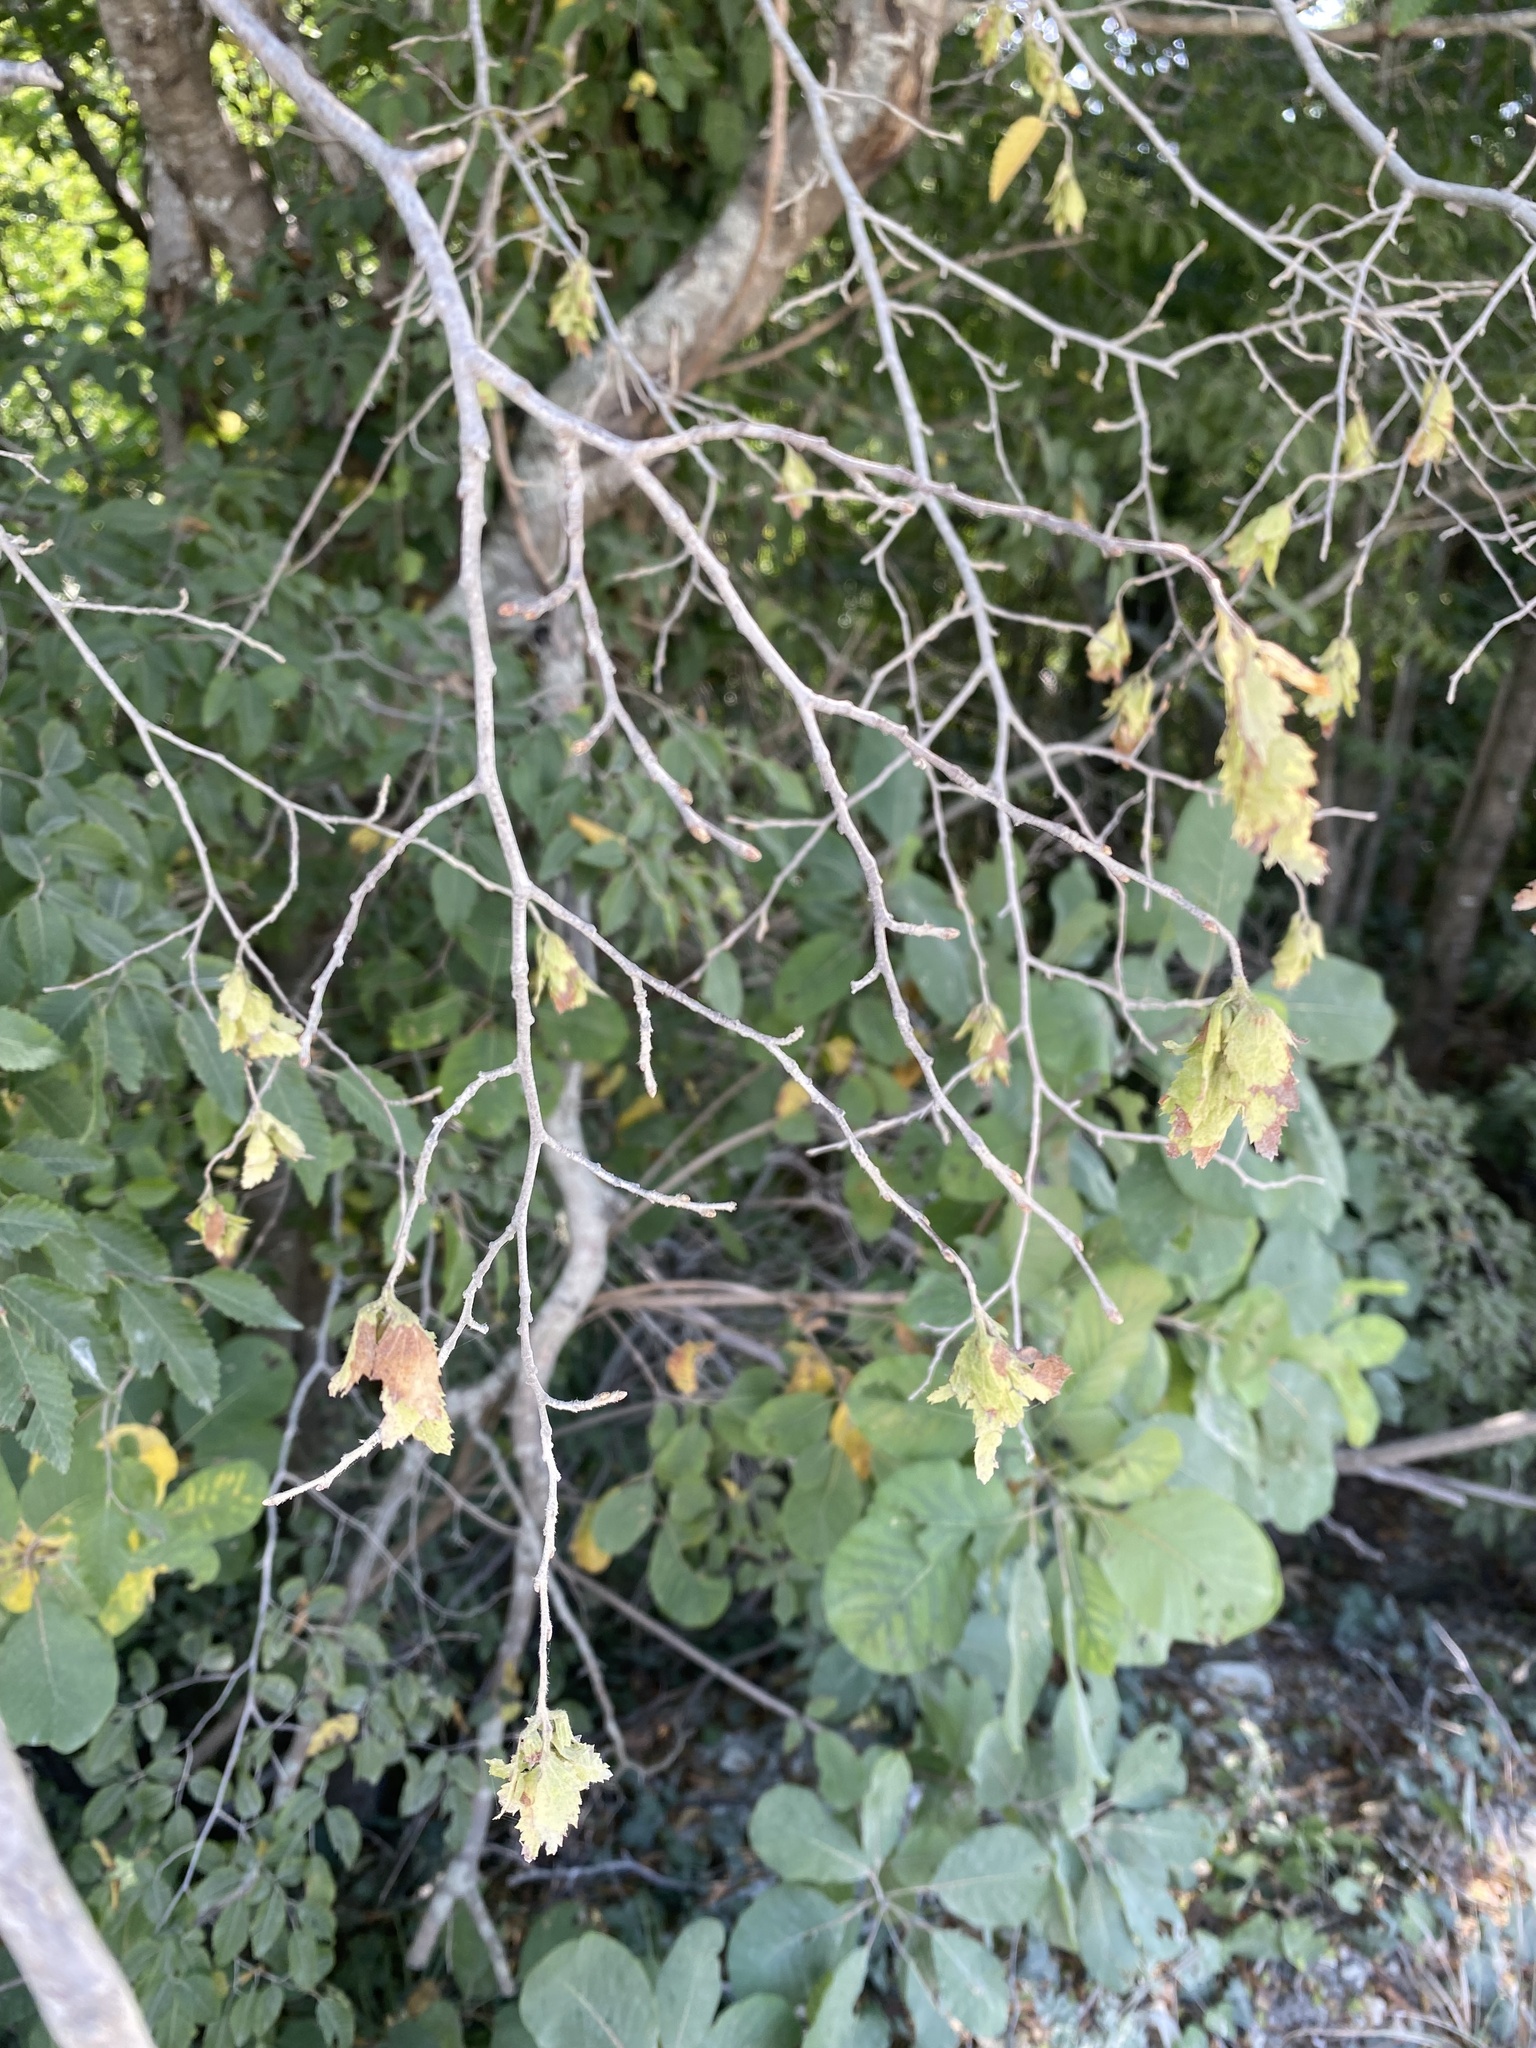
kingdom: Plantae
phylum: Tracheophyta
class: Magnoliopsida
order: Fagales
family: Betulaceae
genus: Carpinus
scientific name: Carpinus orientalis
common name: Eastern hornbeam
